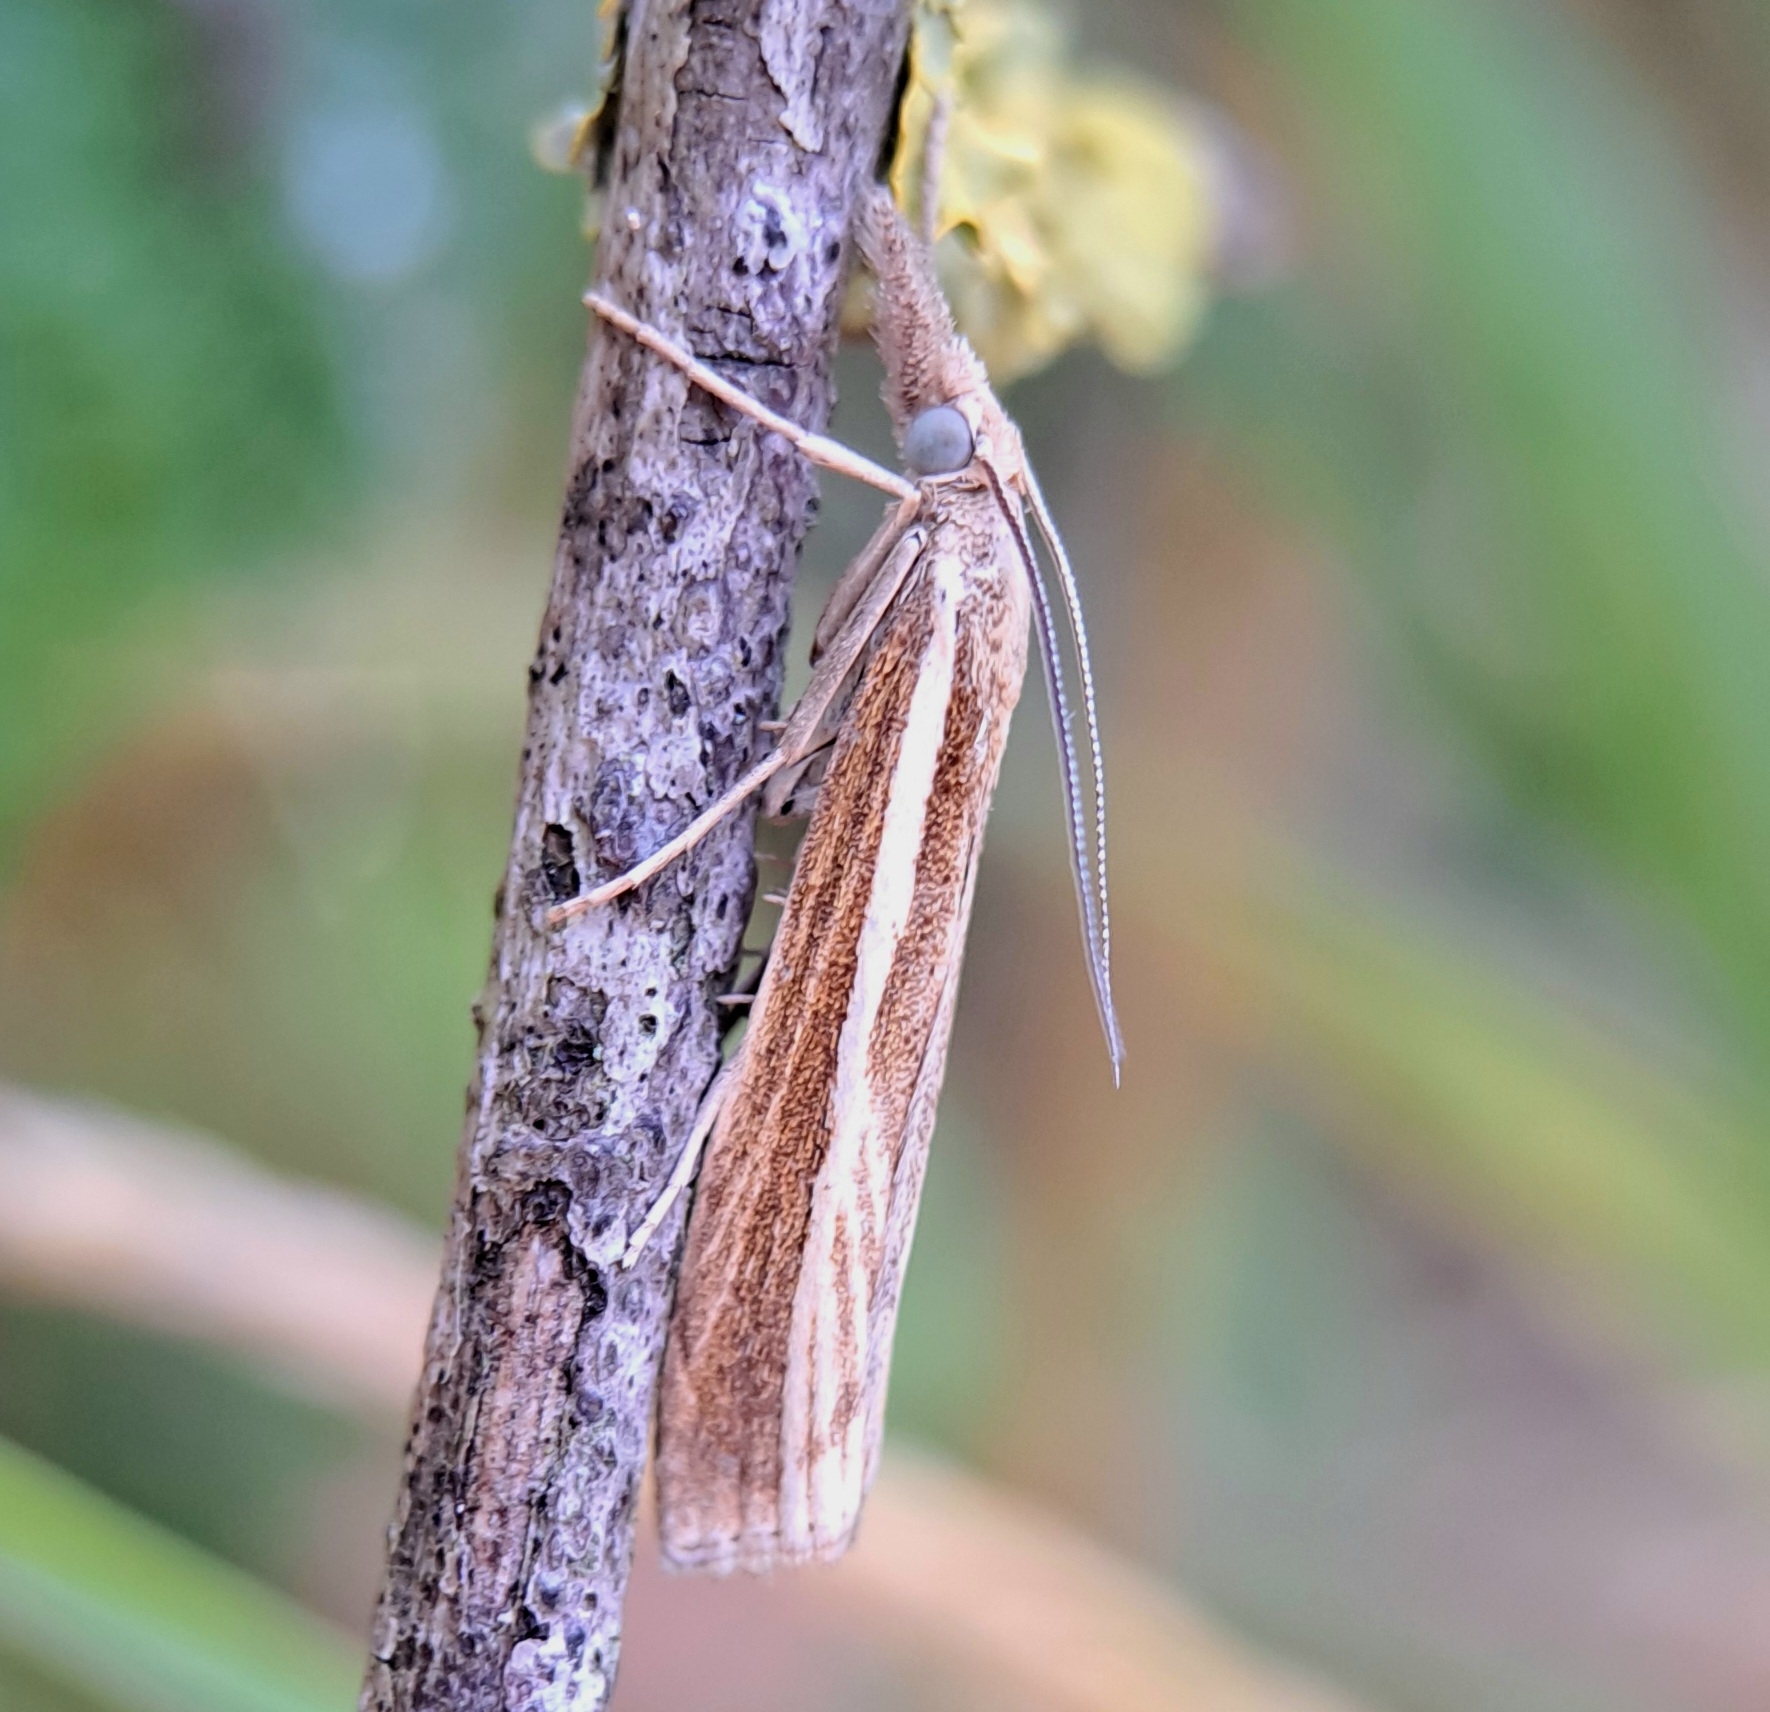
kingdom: Animalia
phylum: Arthropoda
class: Insecta
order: Lepidoptera
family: Crambidae
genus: Agriphila
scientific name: Agriphila tristellus
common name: Common grass-veneer
